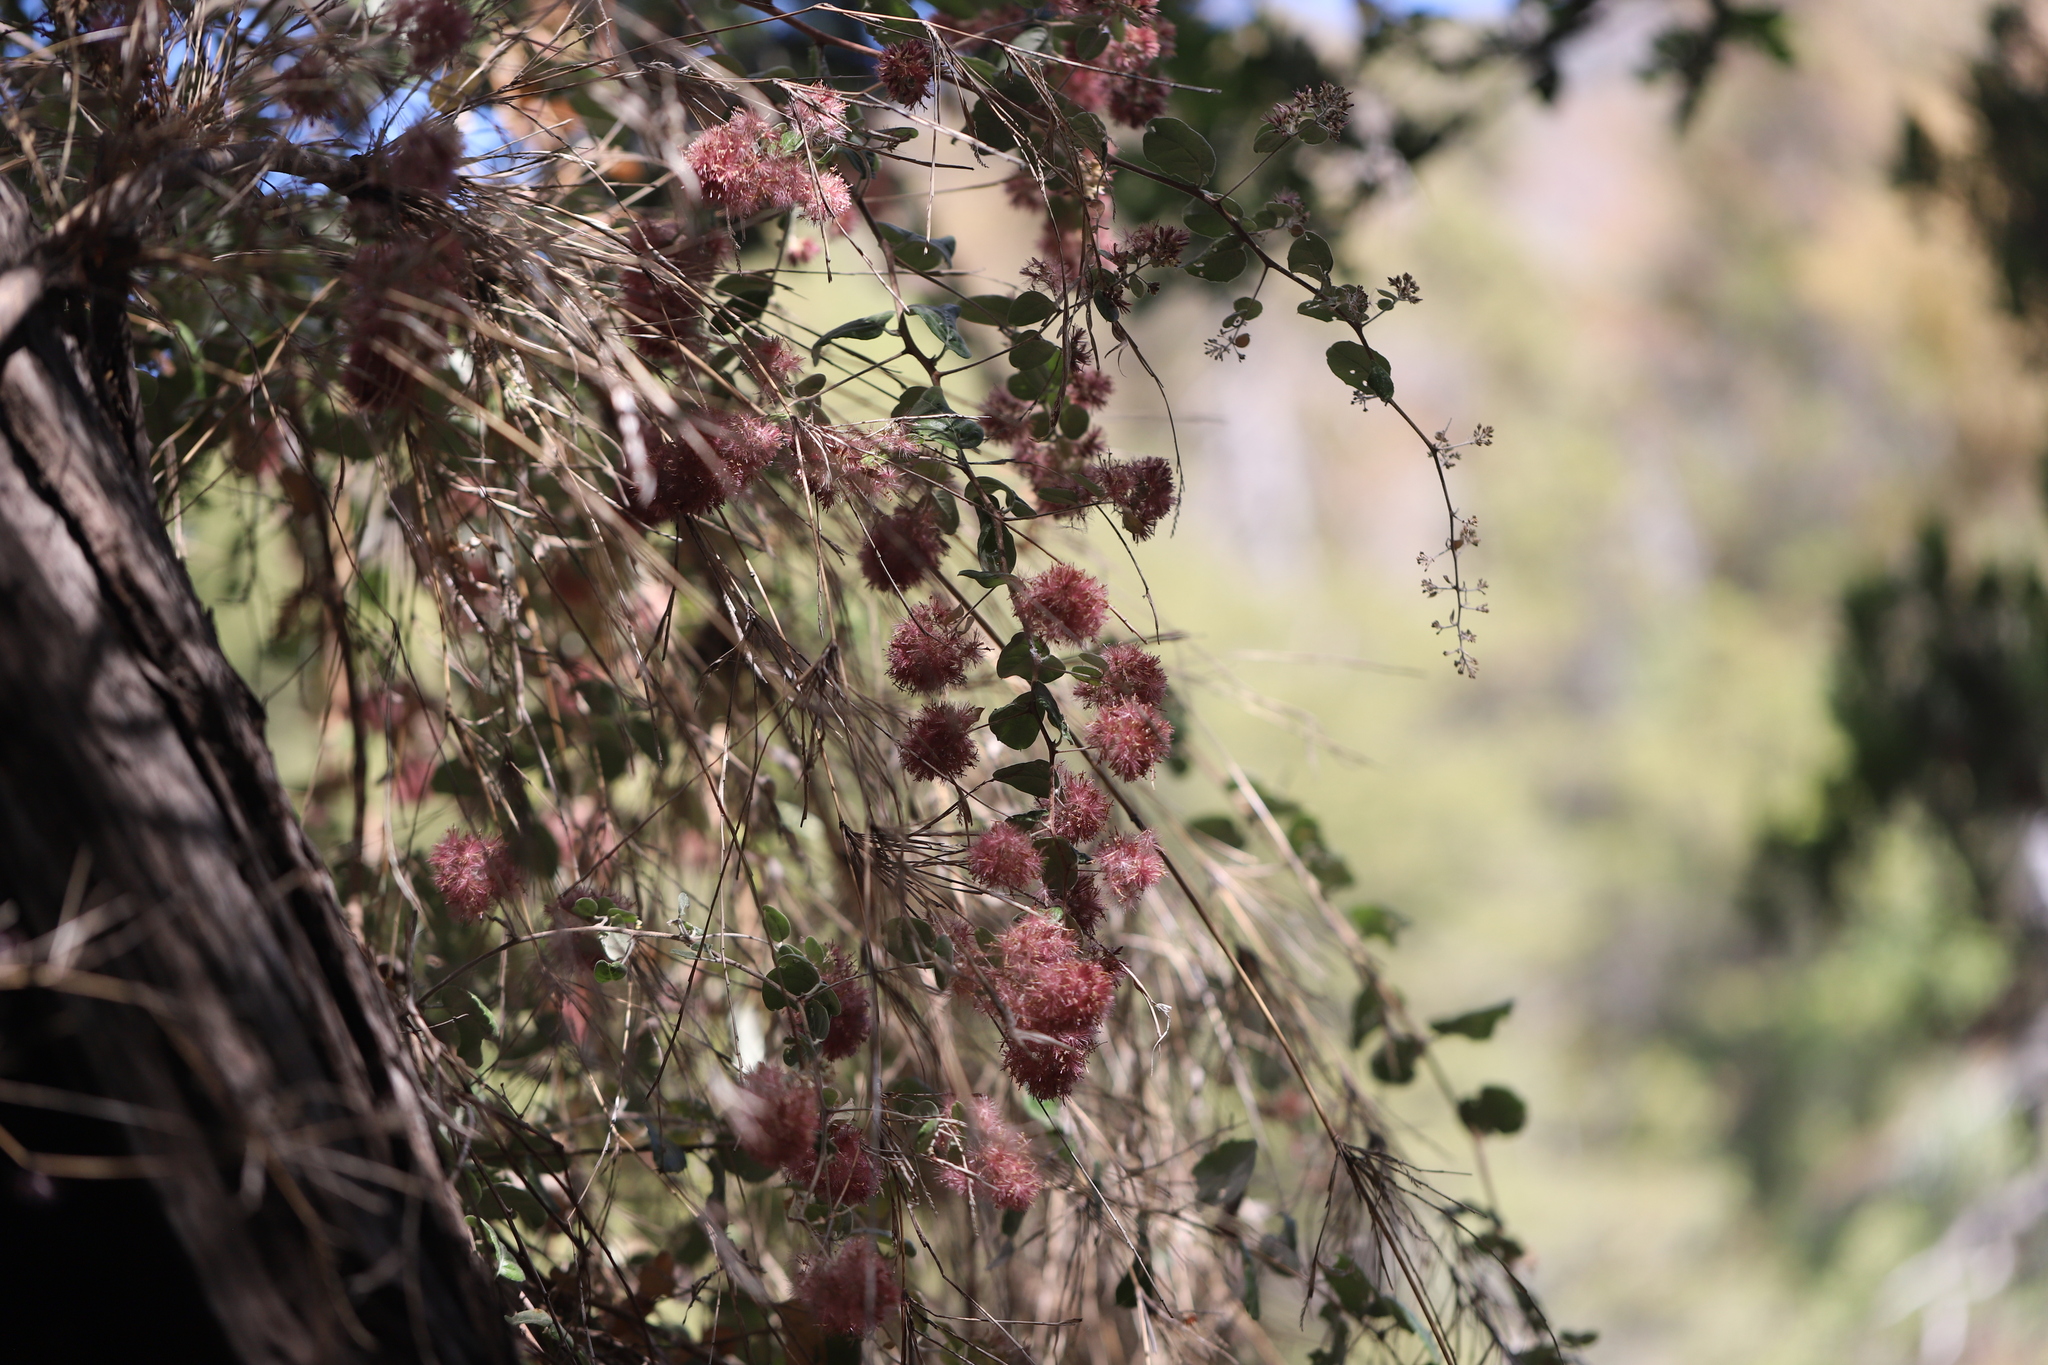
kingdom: Plantae
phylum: Tracheophyta
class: Magnoliopsida
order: Asterales
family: Asteraceae
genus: Proustia
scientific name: Proustia pyrifolia
